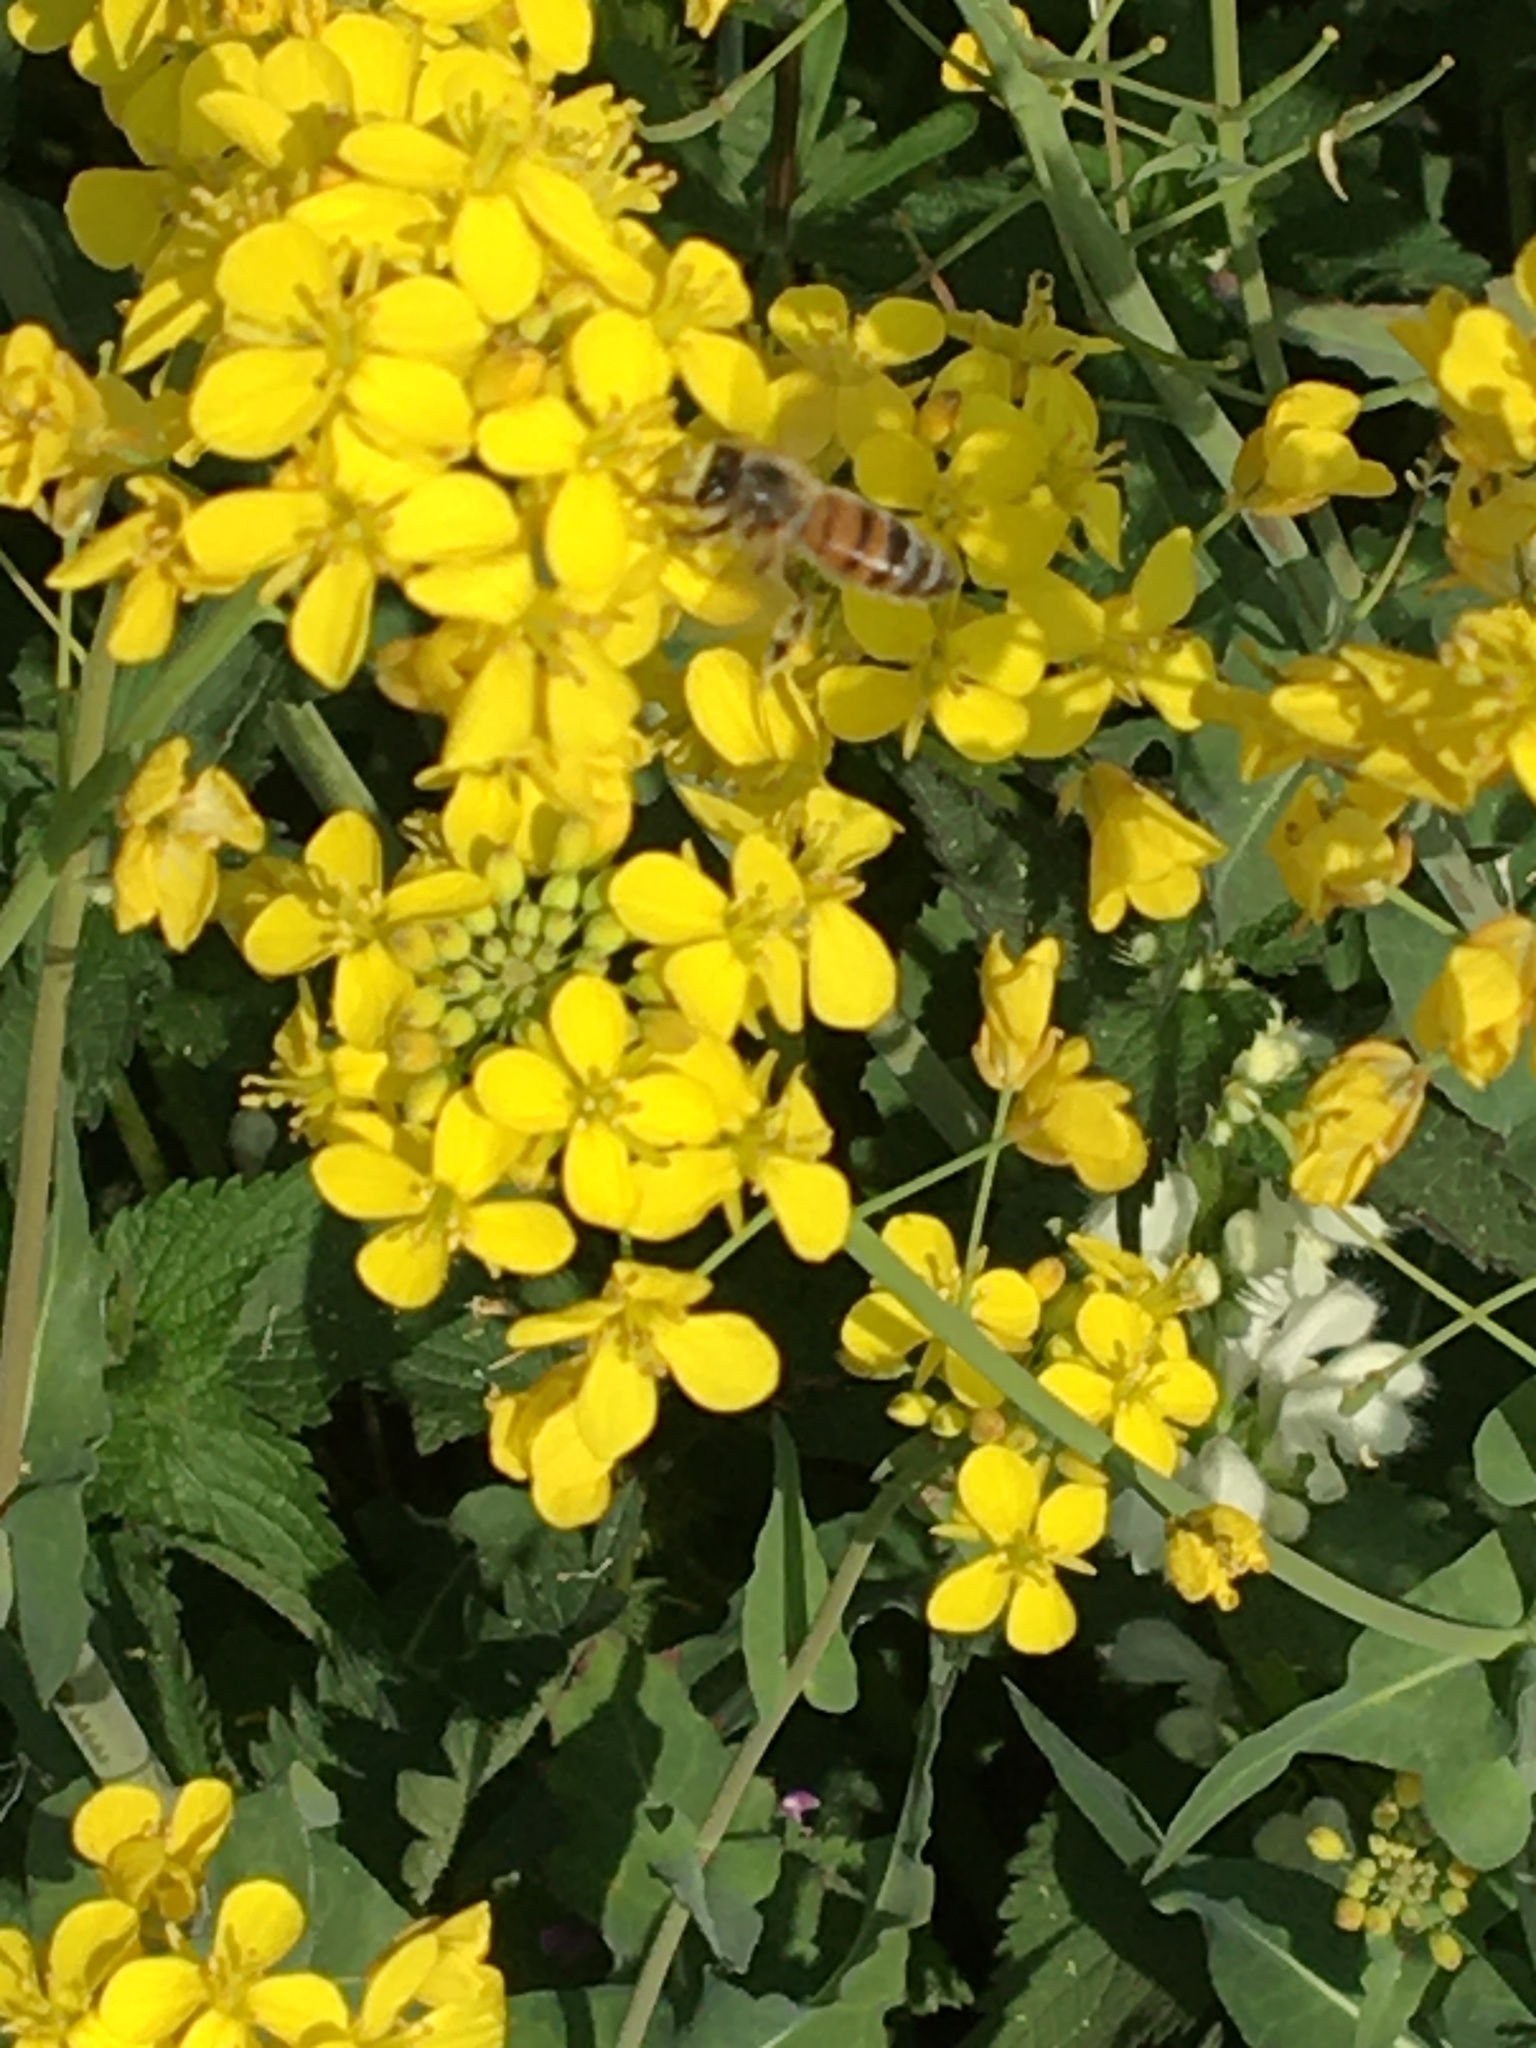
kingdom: Animalia
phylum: Arthropoda
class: Insecta
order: Hymenoptera
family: Apidae
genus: Apis
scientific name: Apis mellifera
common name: Honey bee
